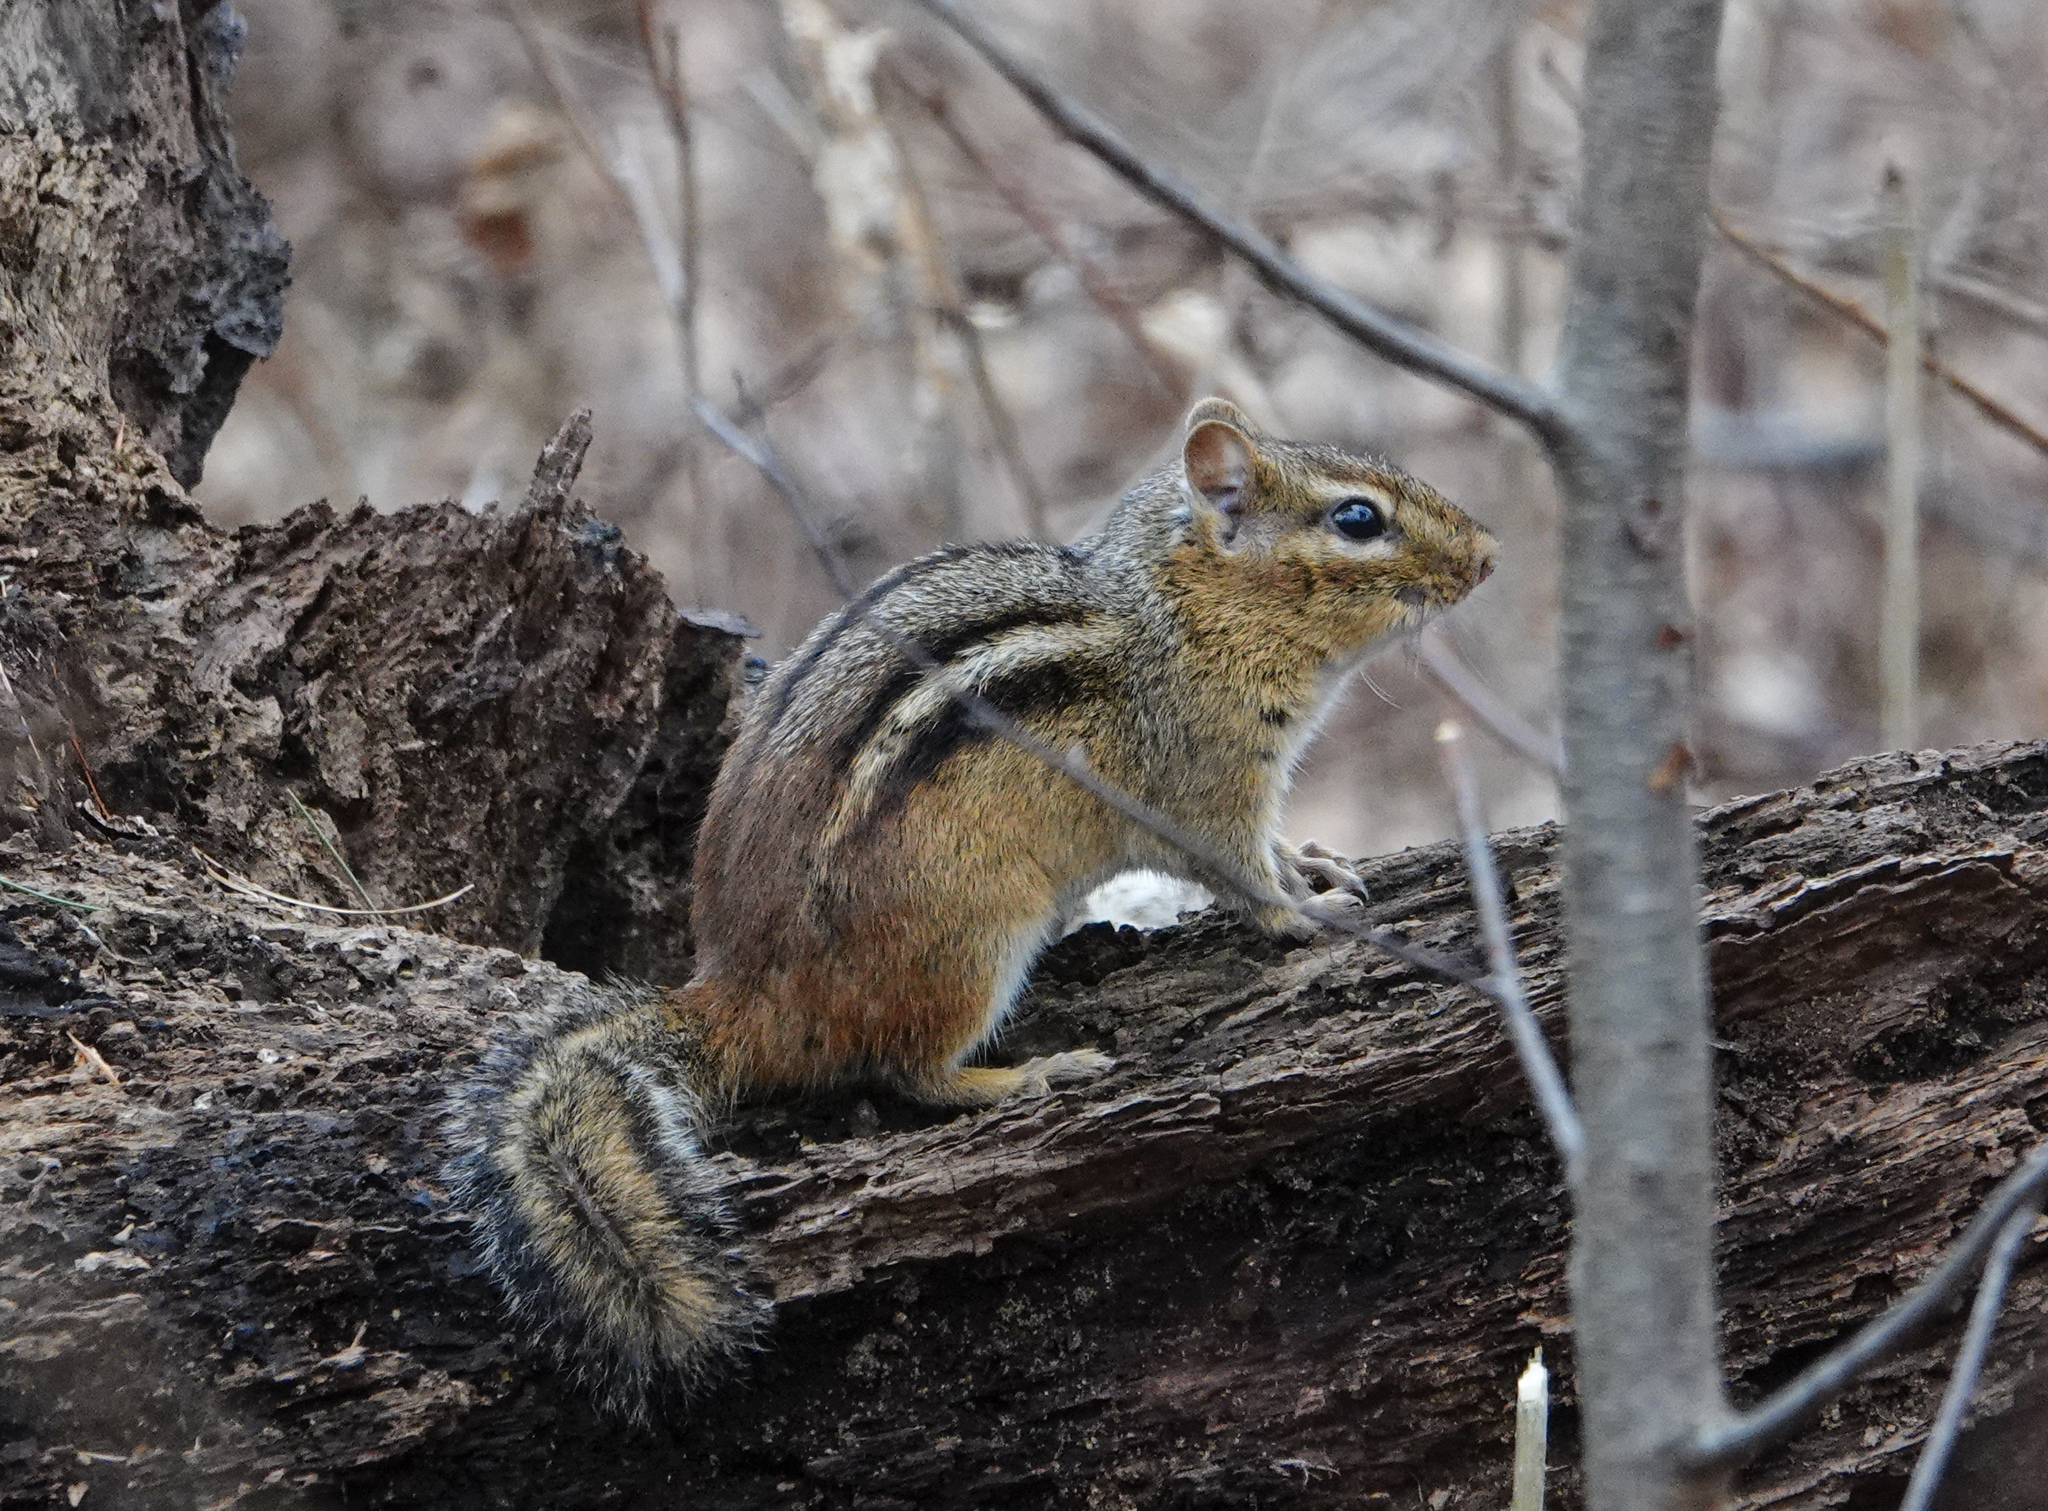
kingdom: Animalia
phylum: Chordata
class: Mammalia
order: Rodentia
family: Sciuridae
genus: Tamias
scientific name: Tamias striatus
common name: Eastern chipmunk
